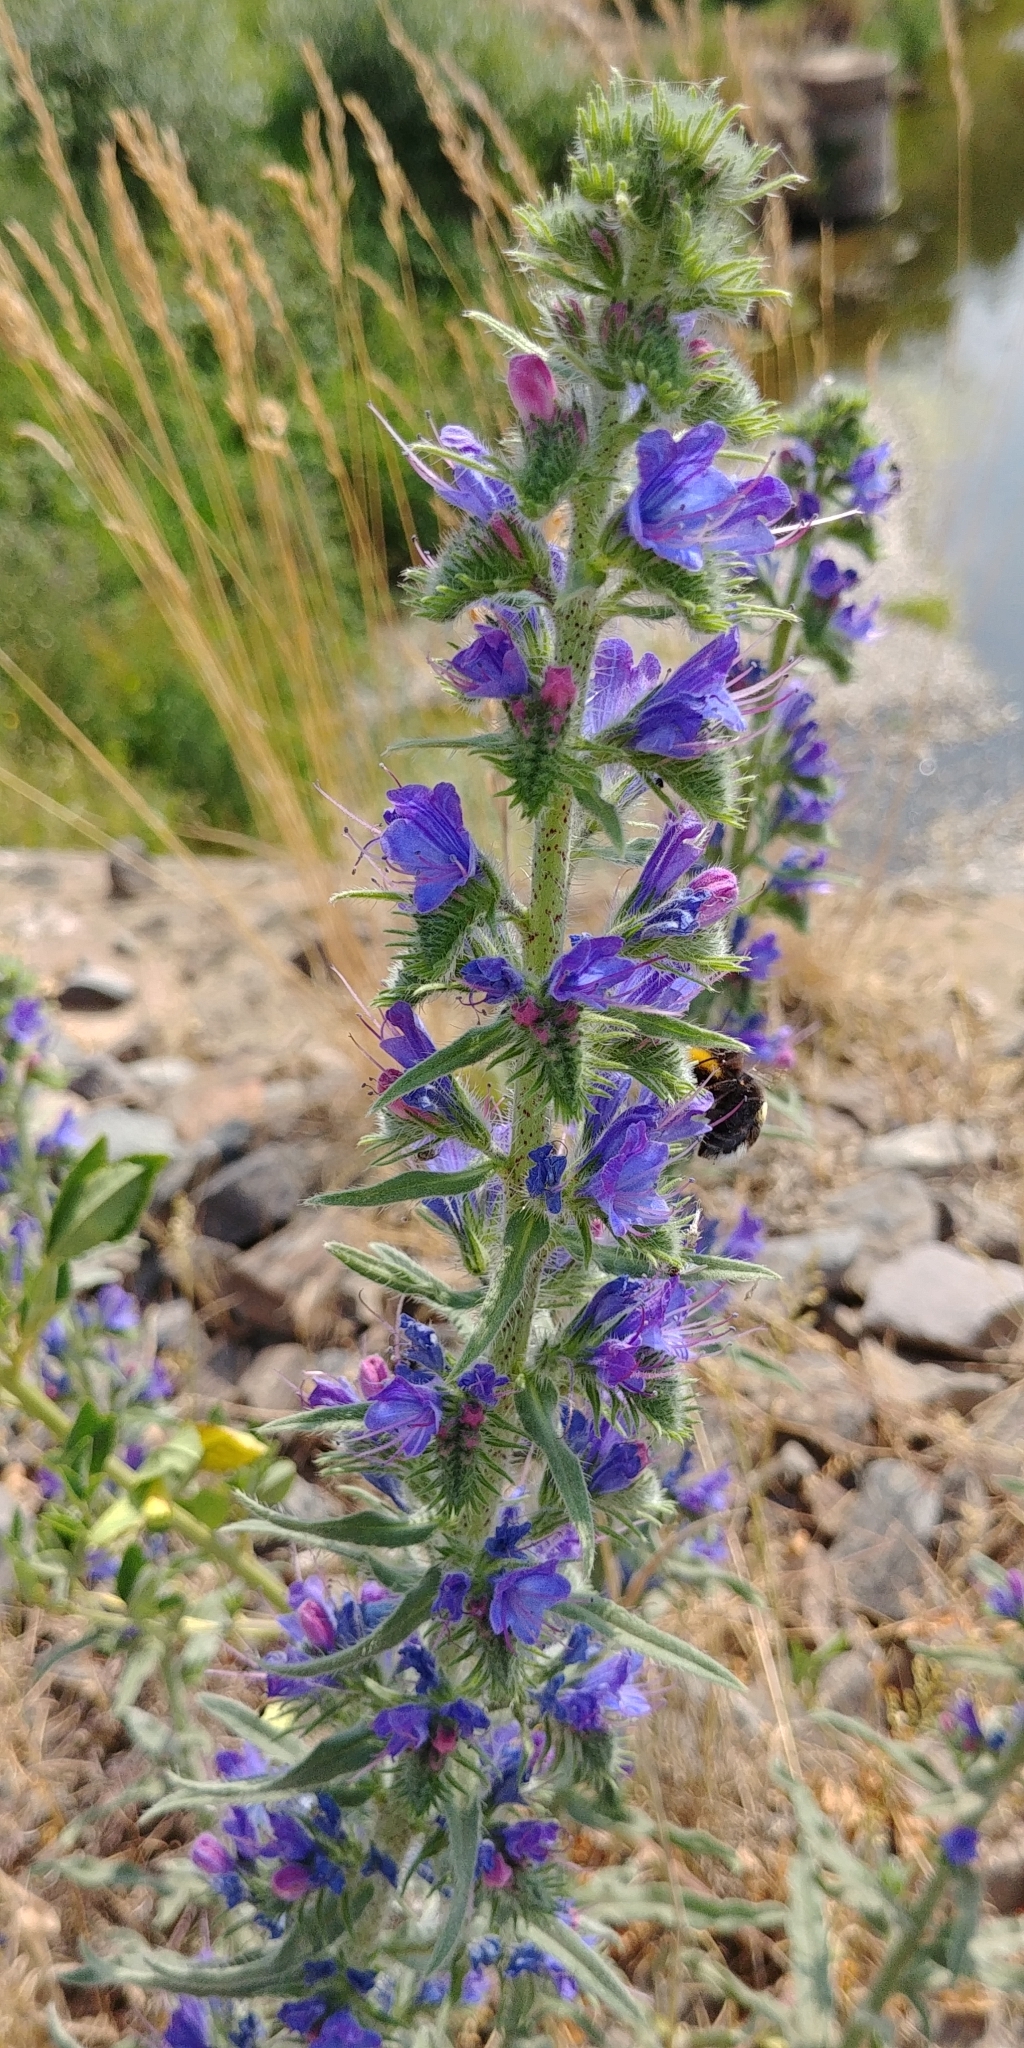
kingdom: Plantae
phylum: Tracheophyta
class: Magnoliopsida
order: Boraginales
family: Boraginaceae
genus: Echium
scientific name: Echium vulgare
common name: Common viper's bugloss
